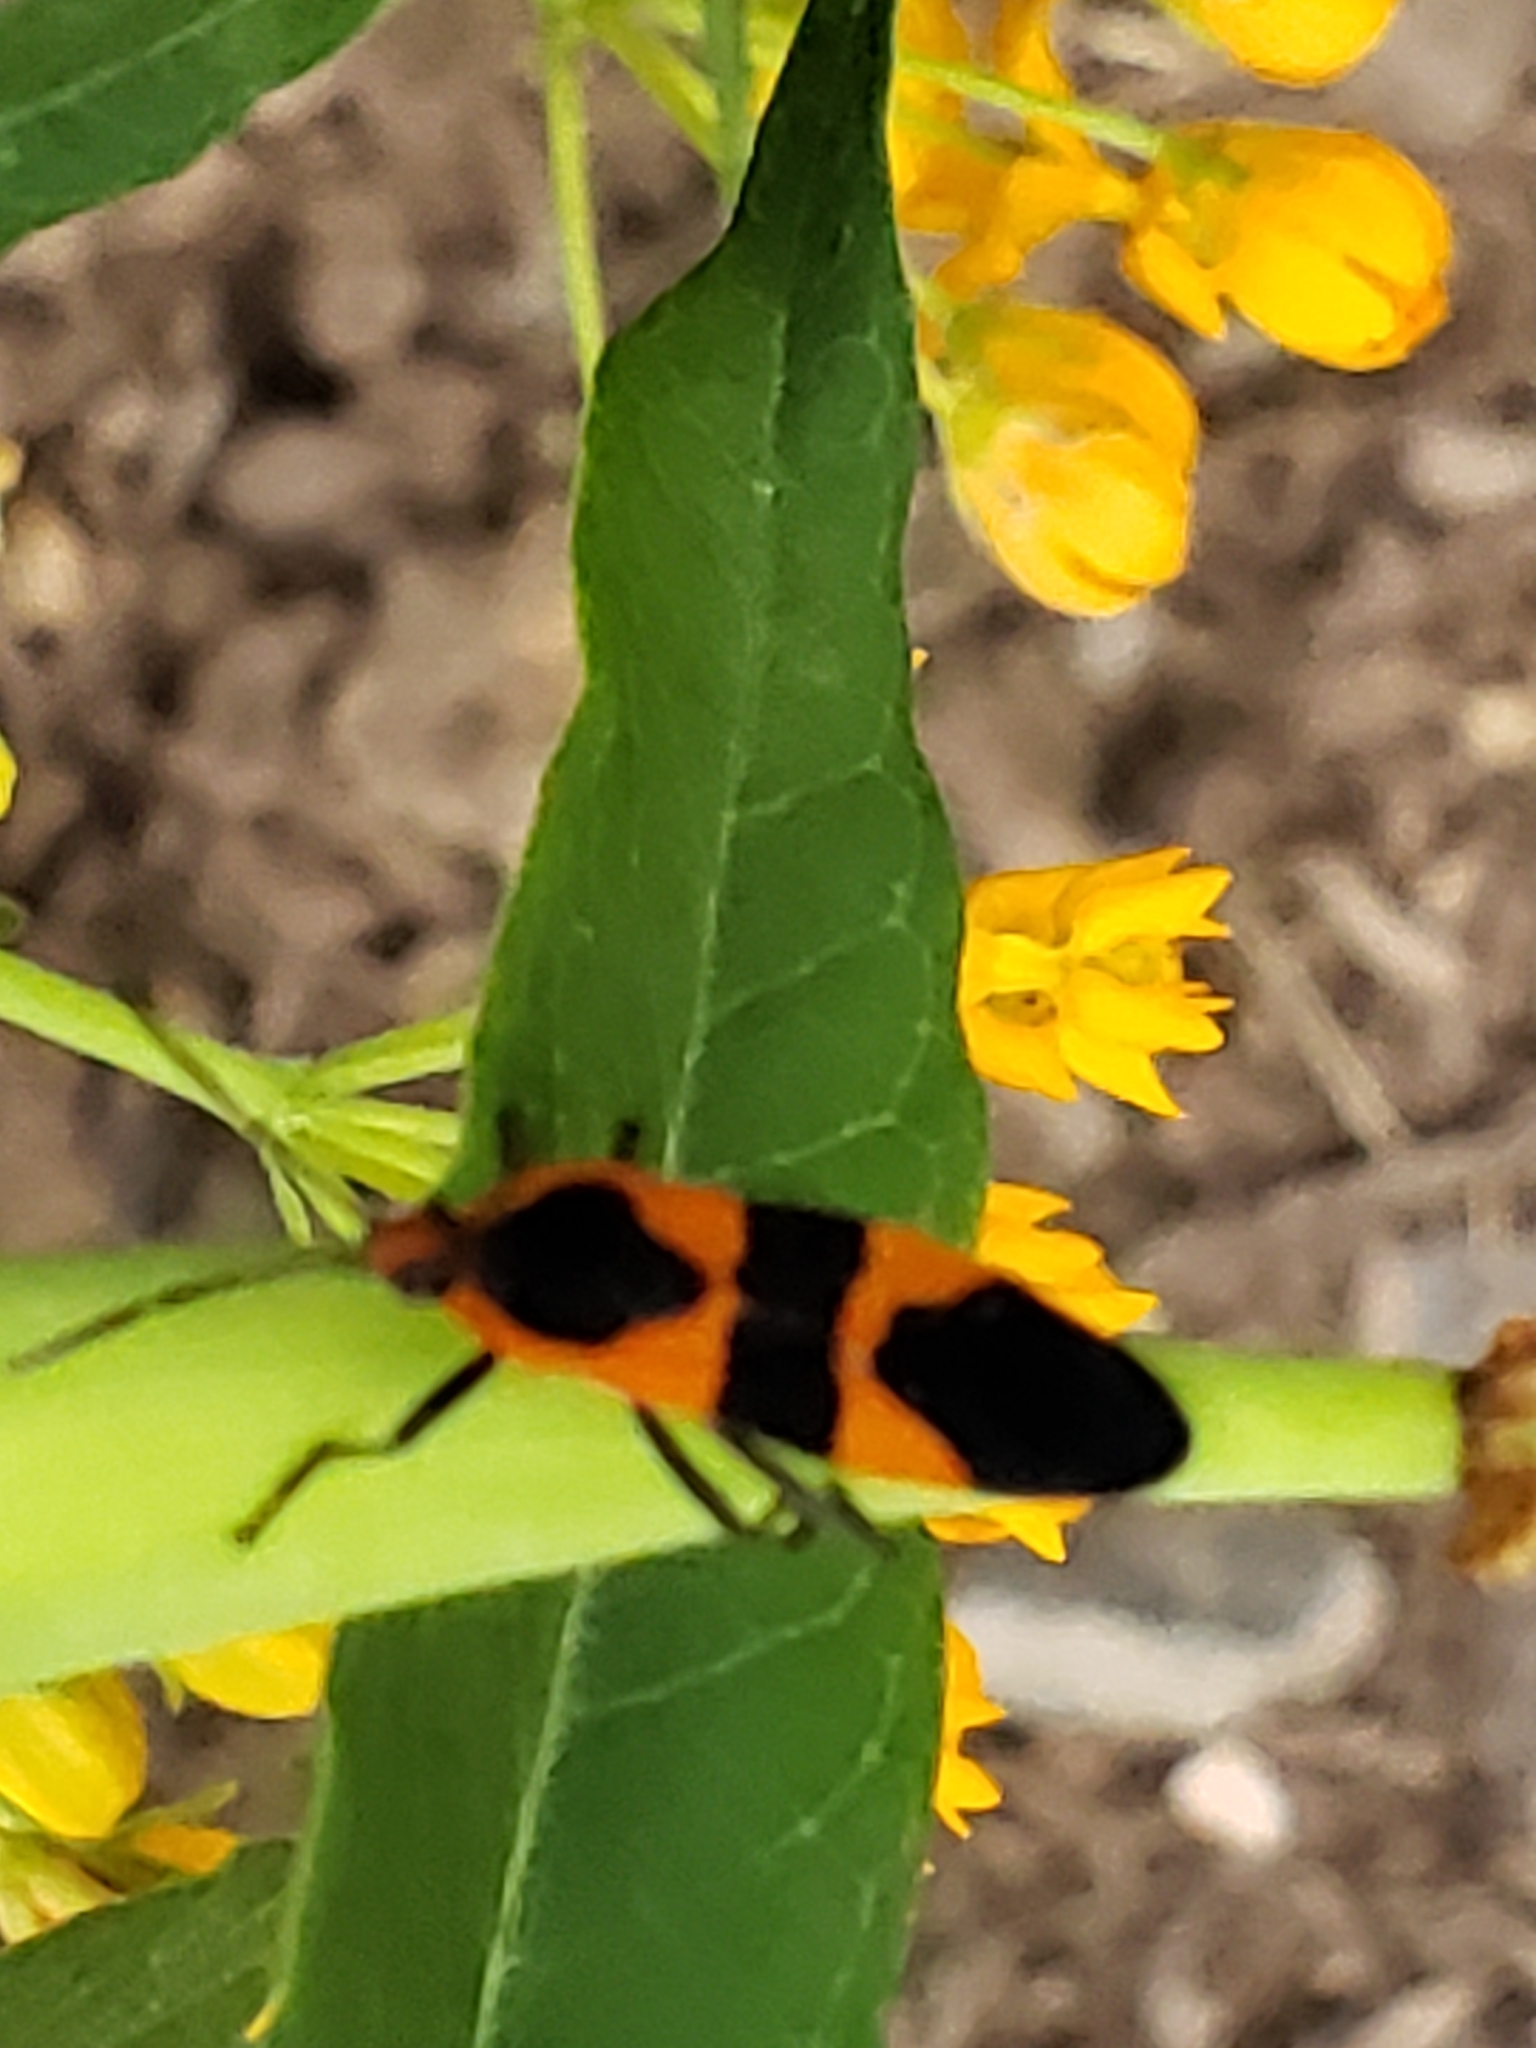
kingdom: Animalia
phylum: Arthropoda
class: Insecta
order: Hemiptera
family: Lygaeidae
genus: Oncopeltus
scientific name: Oncopeltus fasciatus
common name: Large milkweed bug
